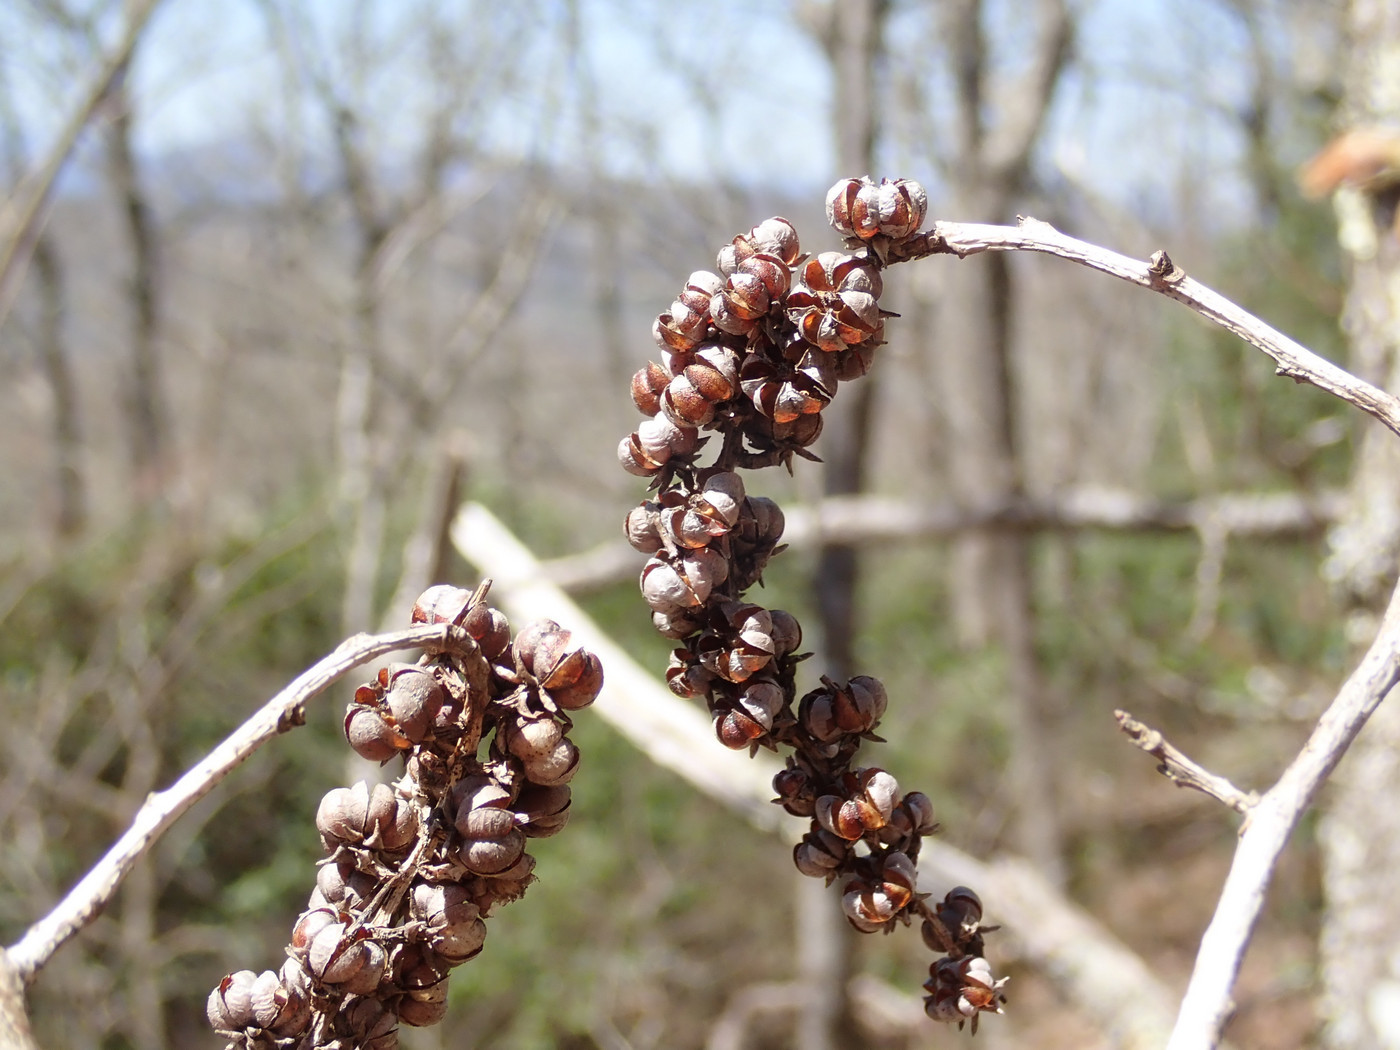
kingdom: Plantae
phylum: Tracheophyta
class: Magnoliopsida
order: Ericales
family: Ericaceae
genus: Eubotrys
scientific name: Eubotrys recurva
